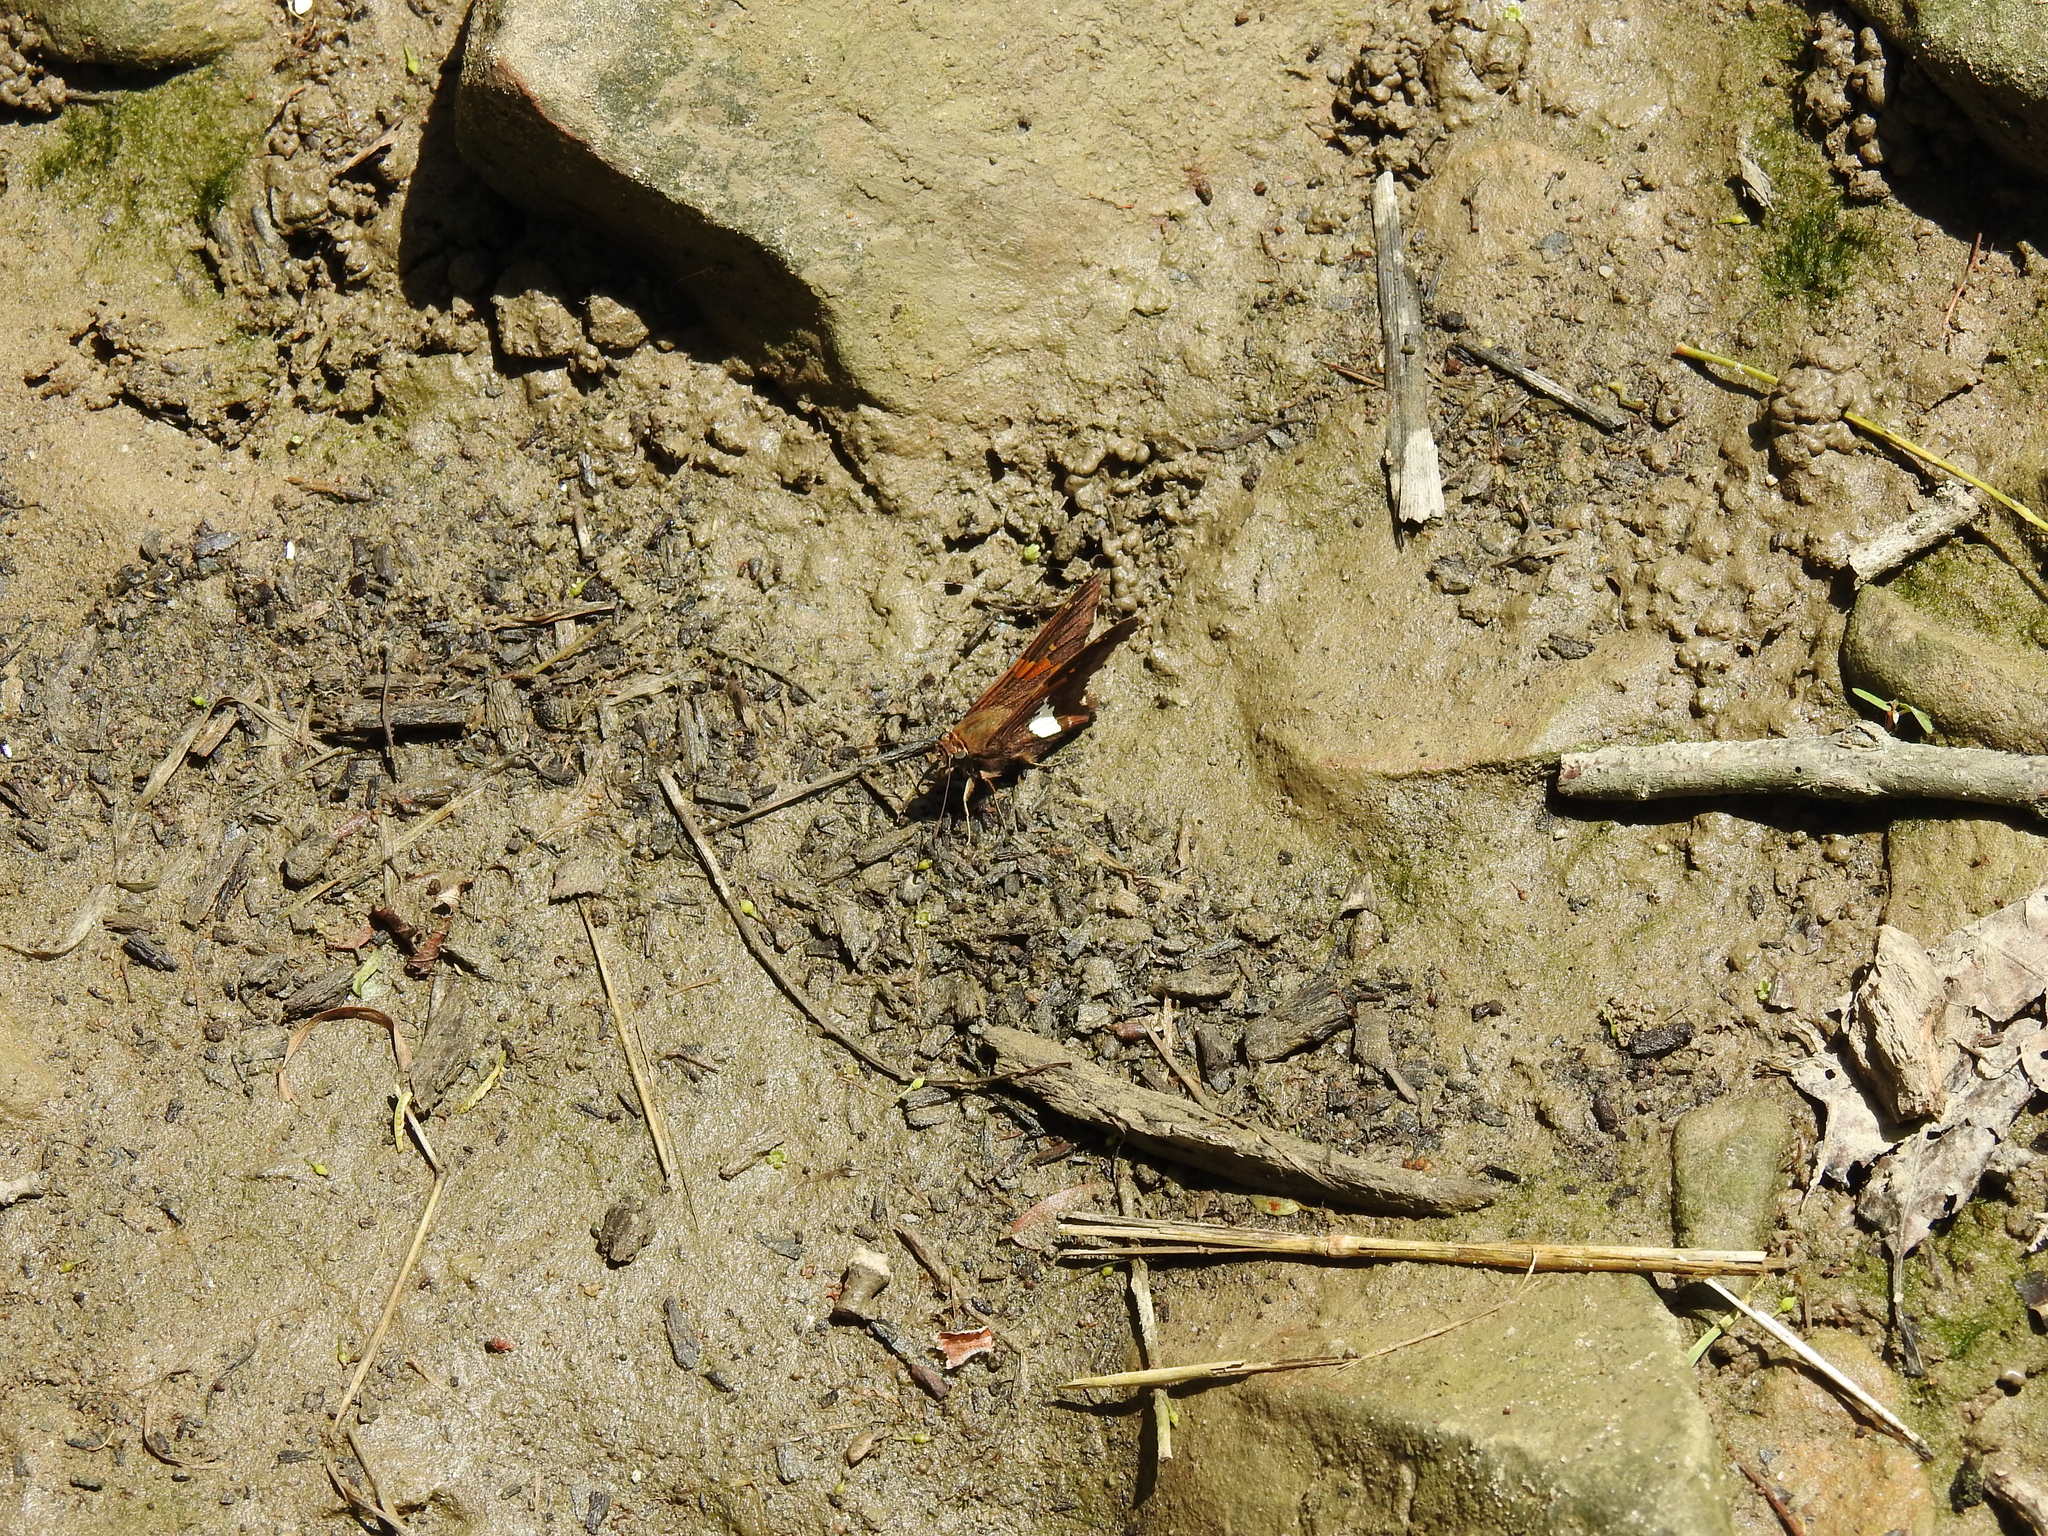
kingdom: Animalia
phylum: Arthropoda
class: Insecta
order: Lepidoptera
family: Hesperiidae
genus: Epargyreus
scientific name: Epargyreus clarus
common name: Silver-spotted skipper
